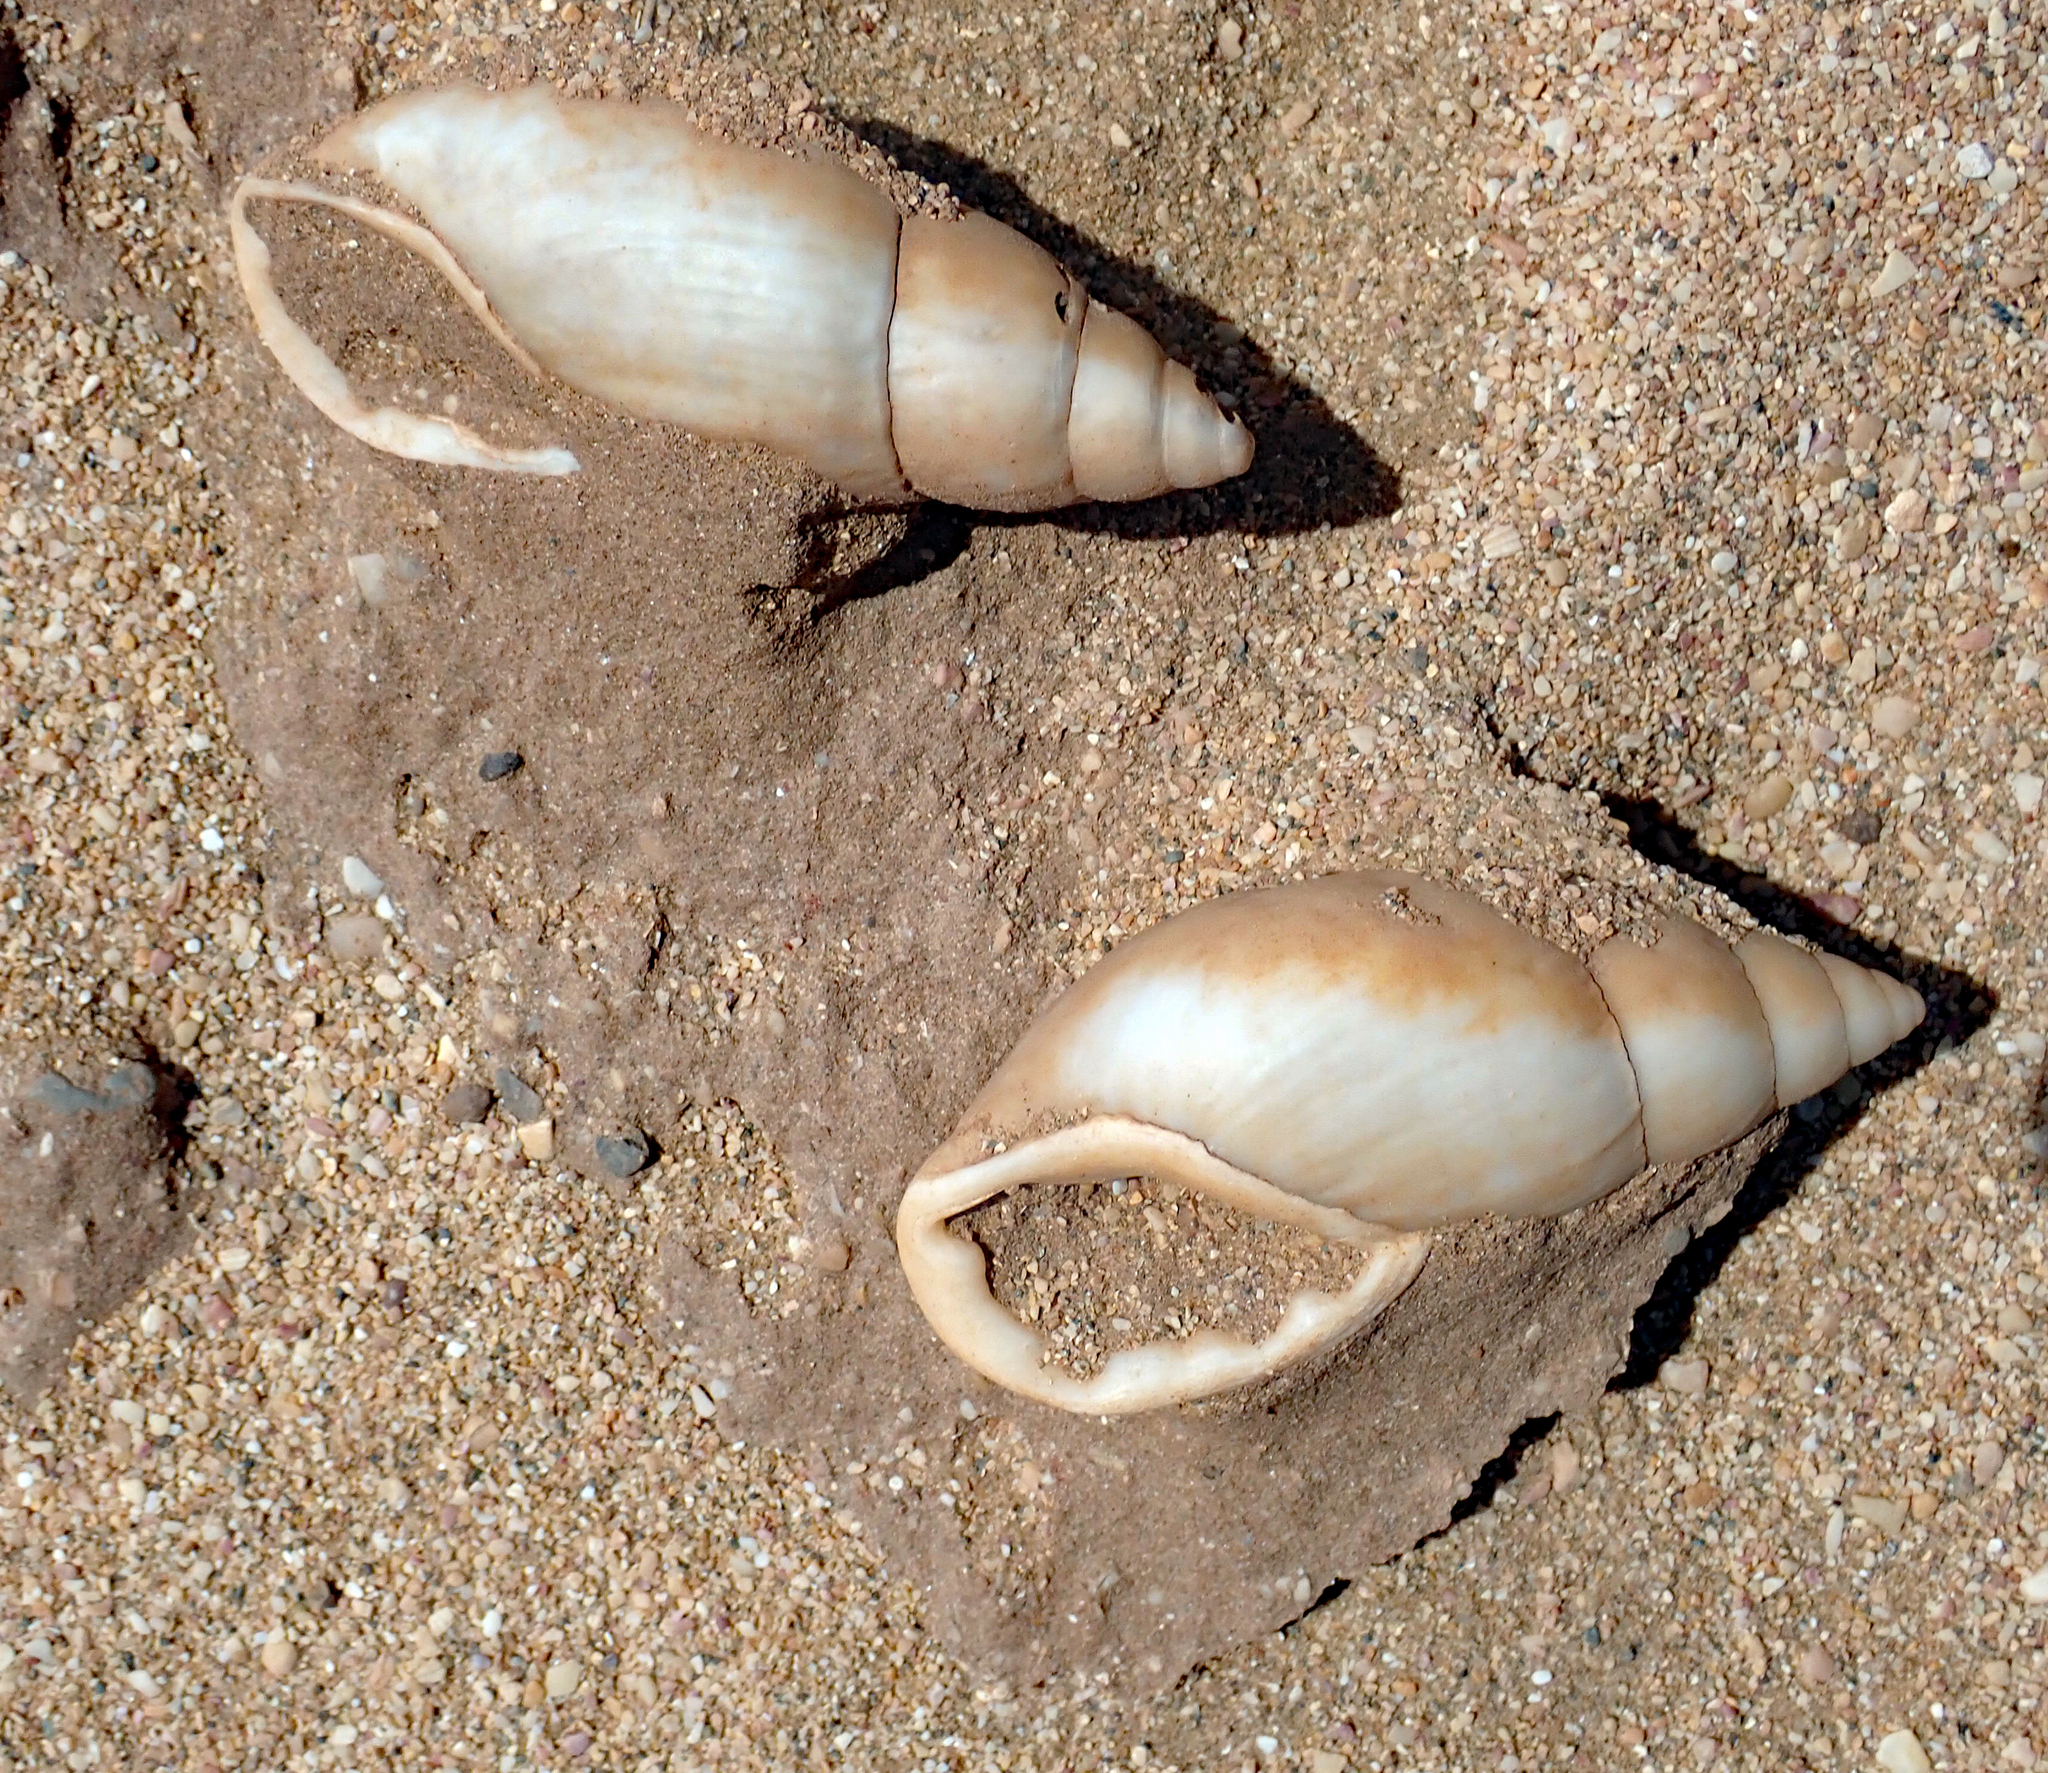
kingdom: Animalia
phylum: Mollusca
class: Gastropoda
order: Stylommatophora
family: Bothriembryontidae
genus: Maoristylus
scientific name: Maoristylus ambagiosus
